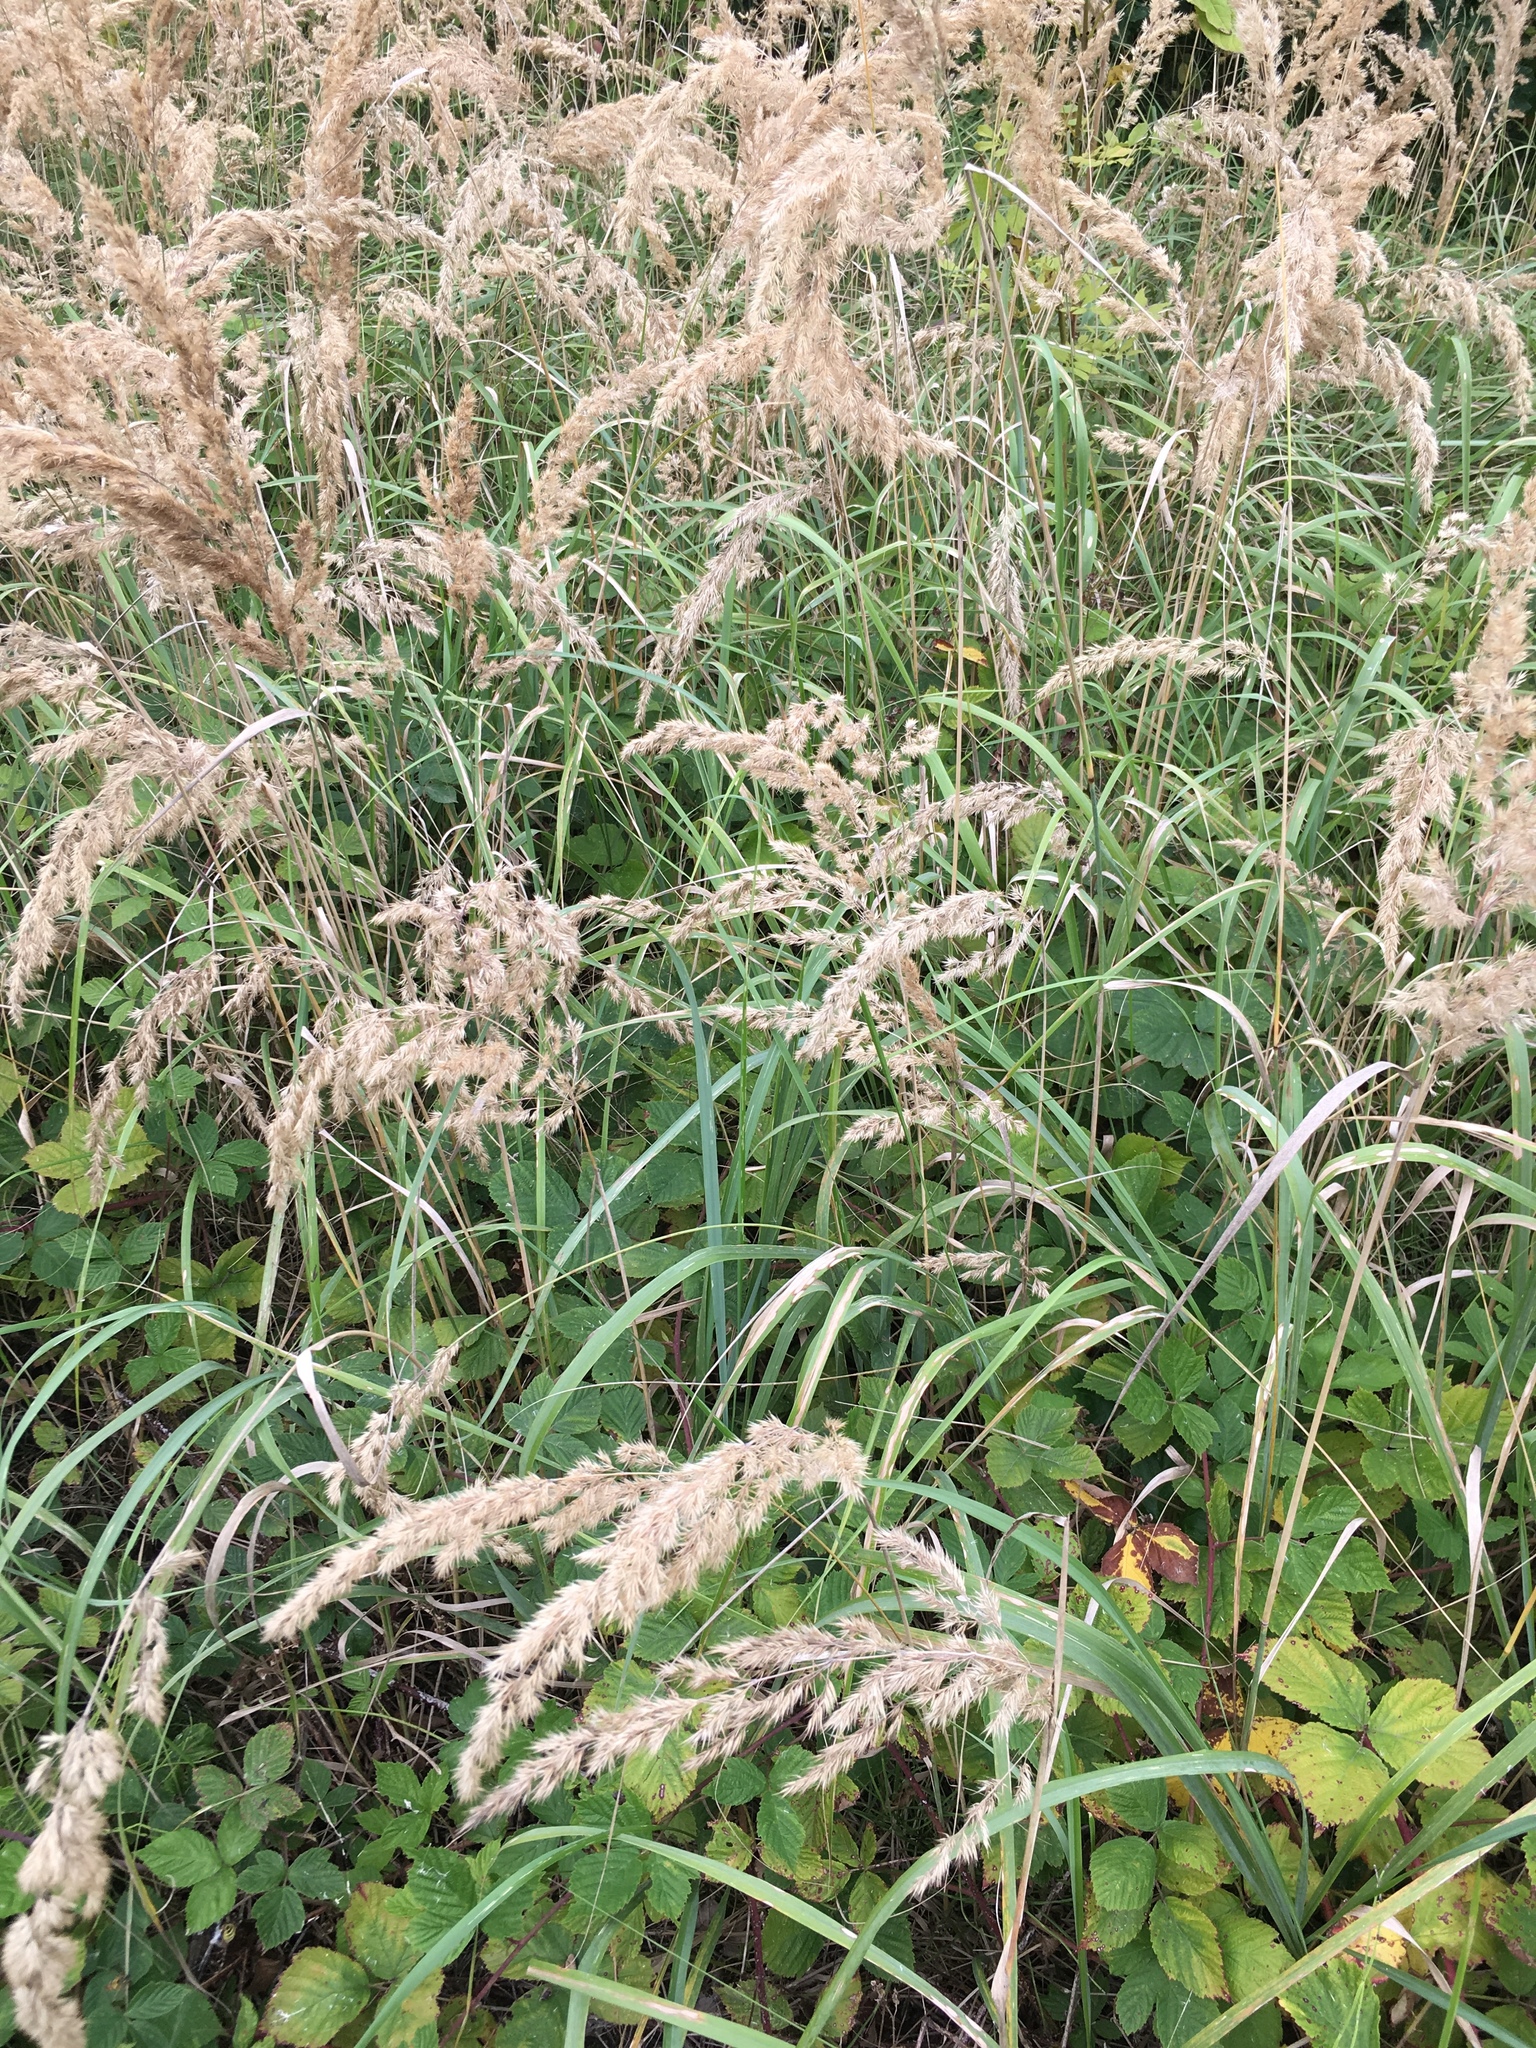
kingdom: Plantae
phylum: Tracheophyta
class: Liliopsida
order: Poales
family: Poaceae
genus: Calamagrostis
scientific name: Calamagrostis epigejos
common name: Wood small-reed
